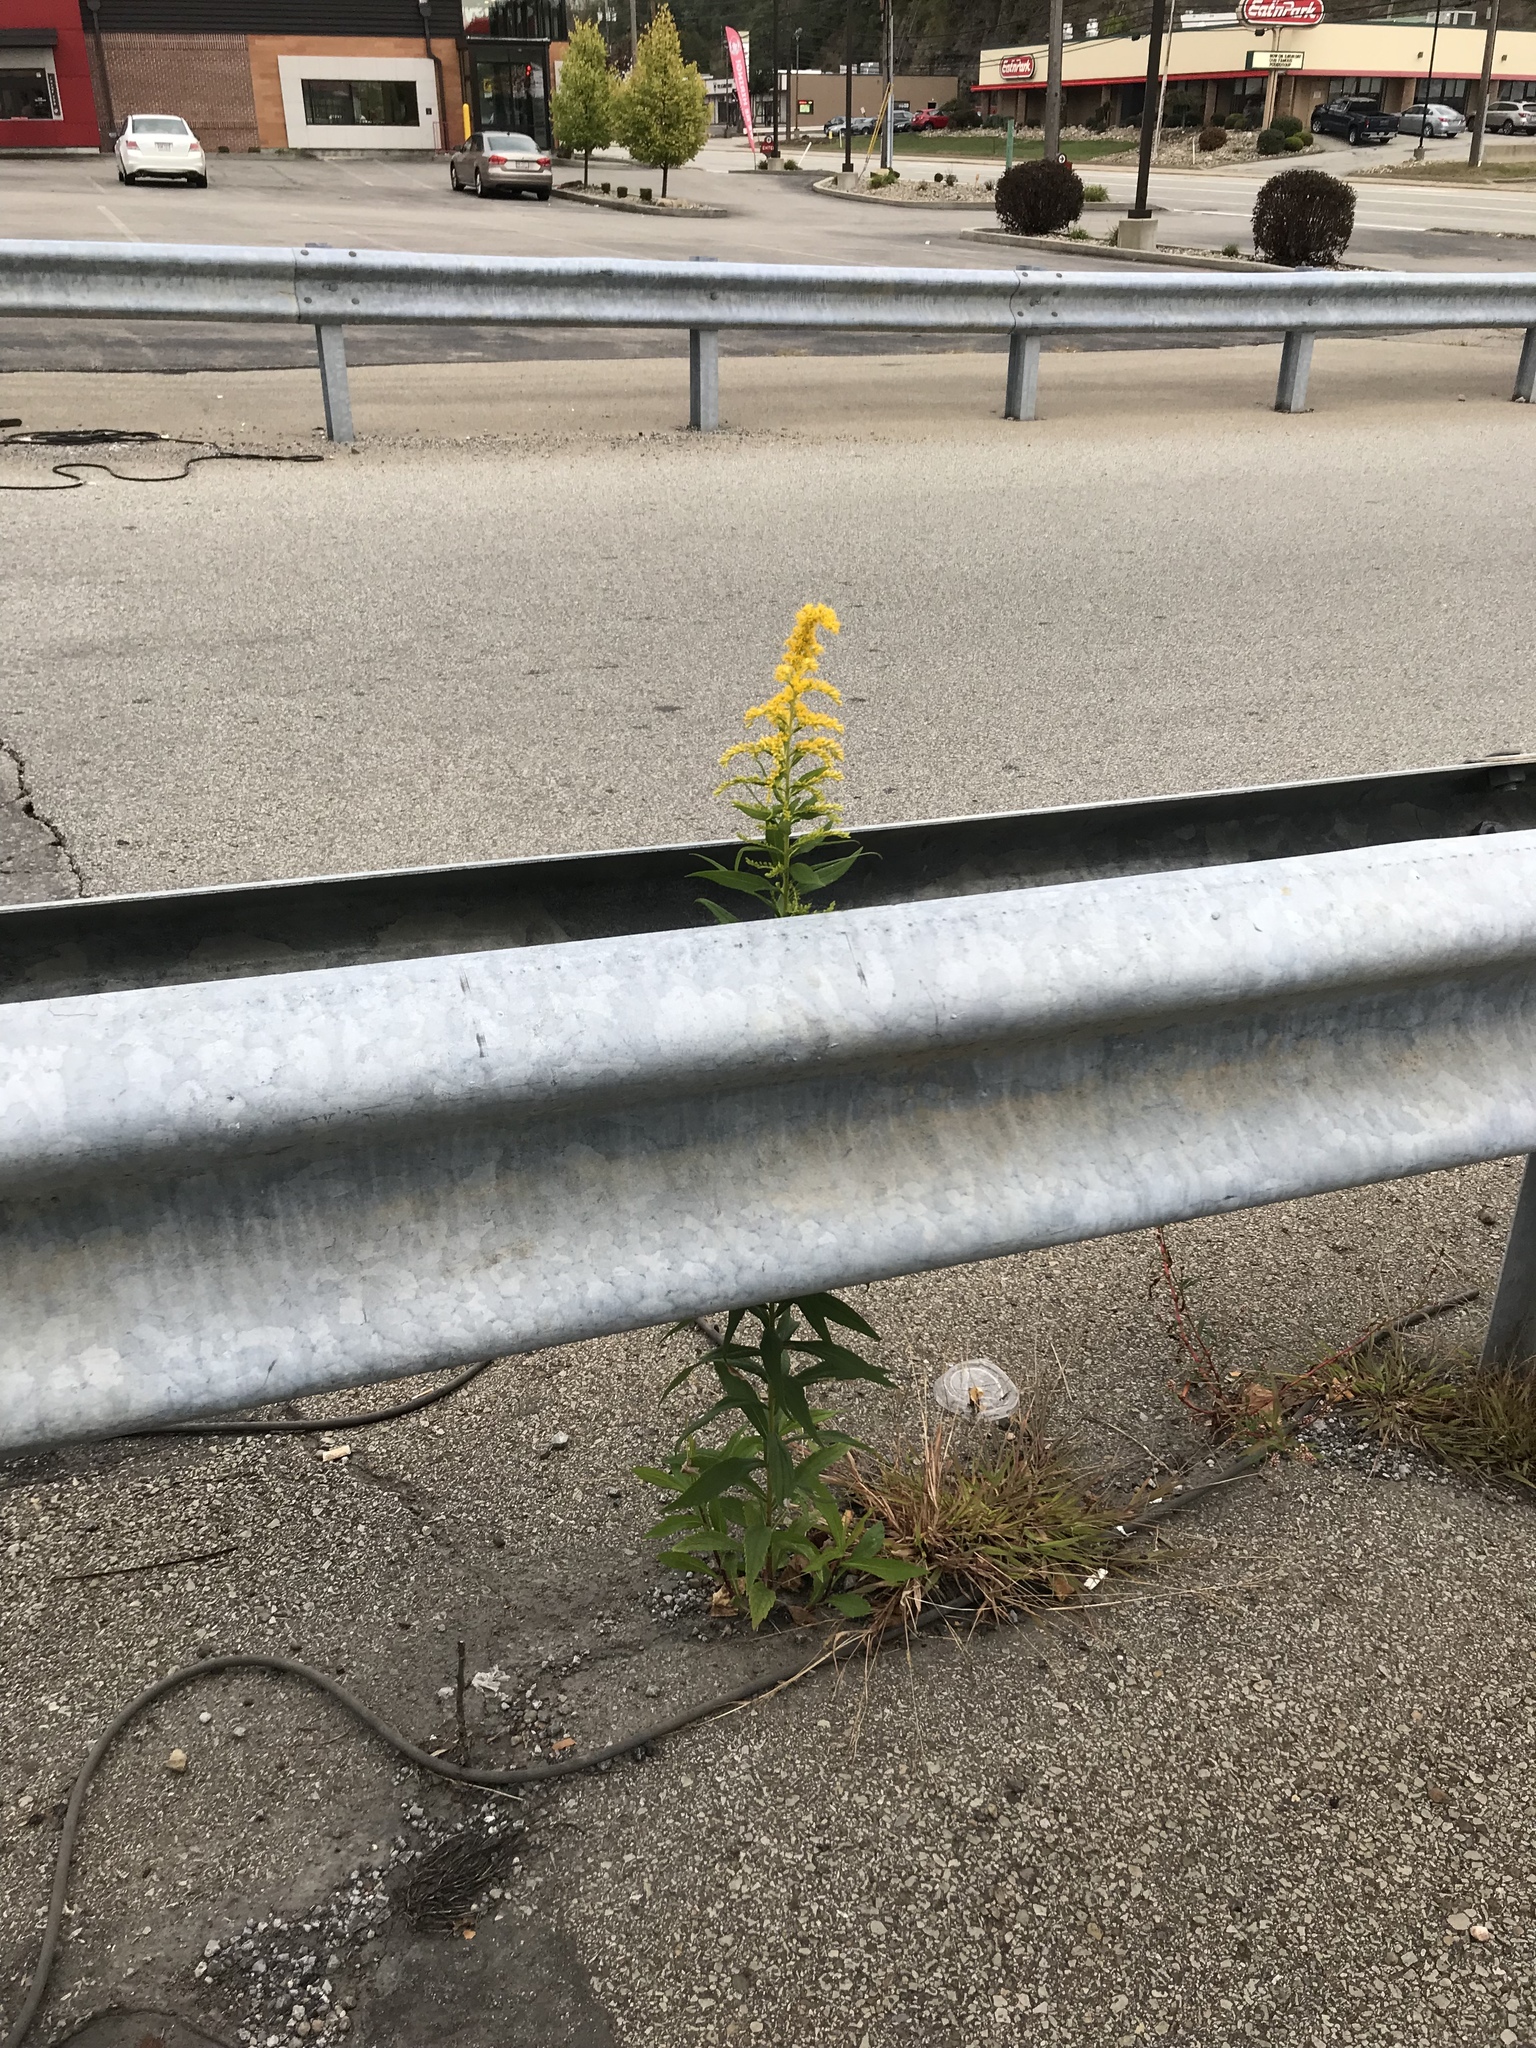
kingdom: Plantae
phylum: Tracheophyta
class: Magnoliopsida
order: Asterales
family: Asteraceae
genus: Solidago
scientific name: Solidago canadensis
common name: Canada goldenrod
